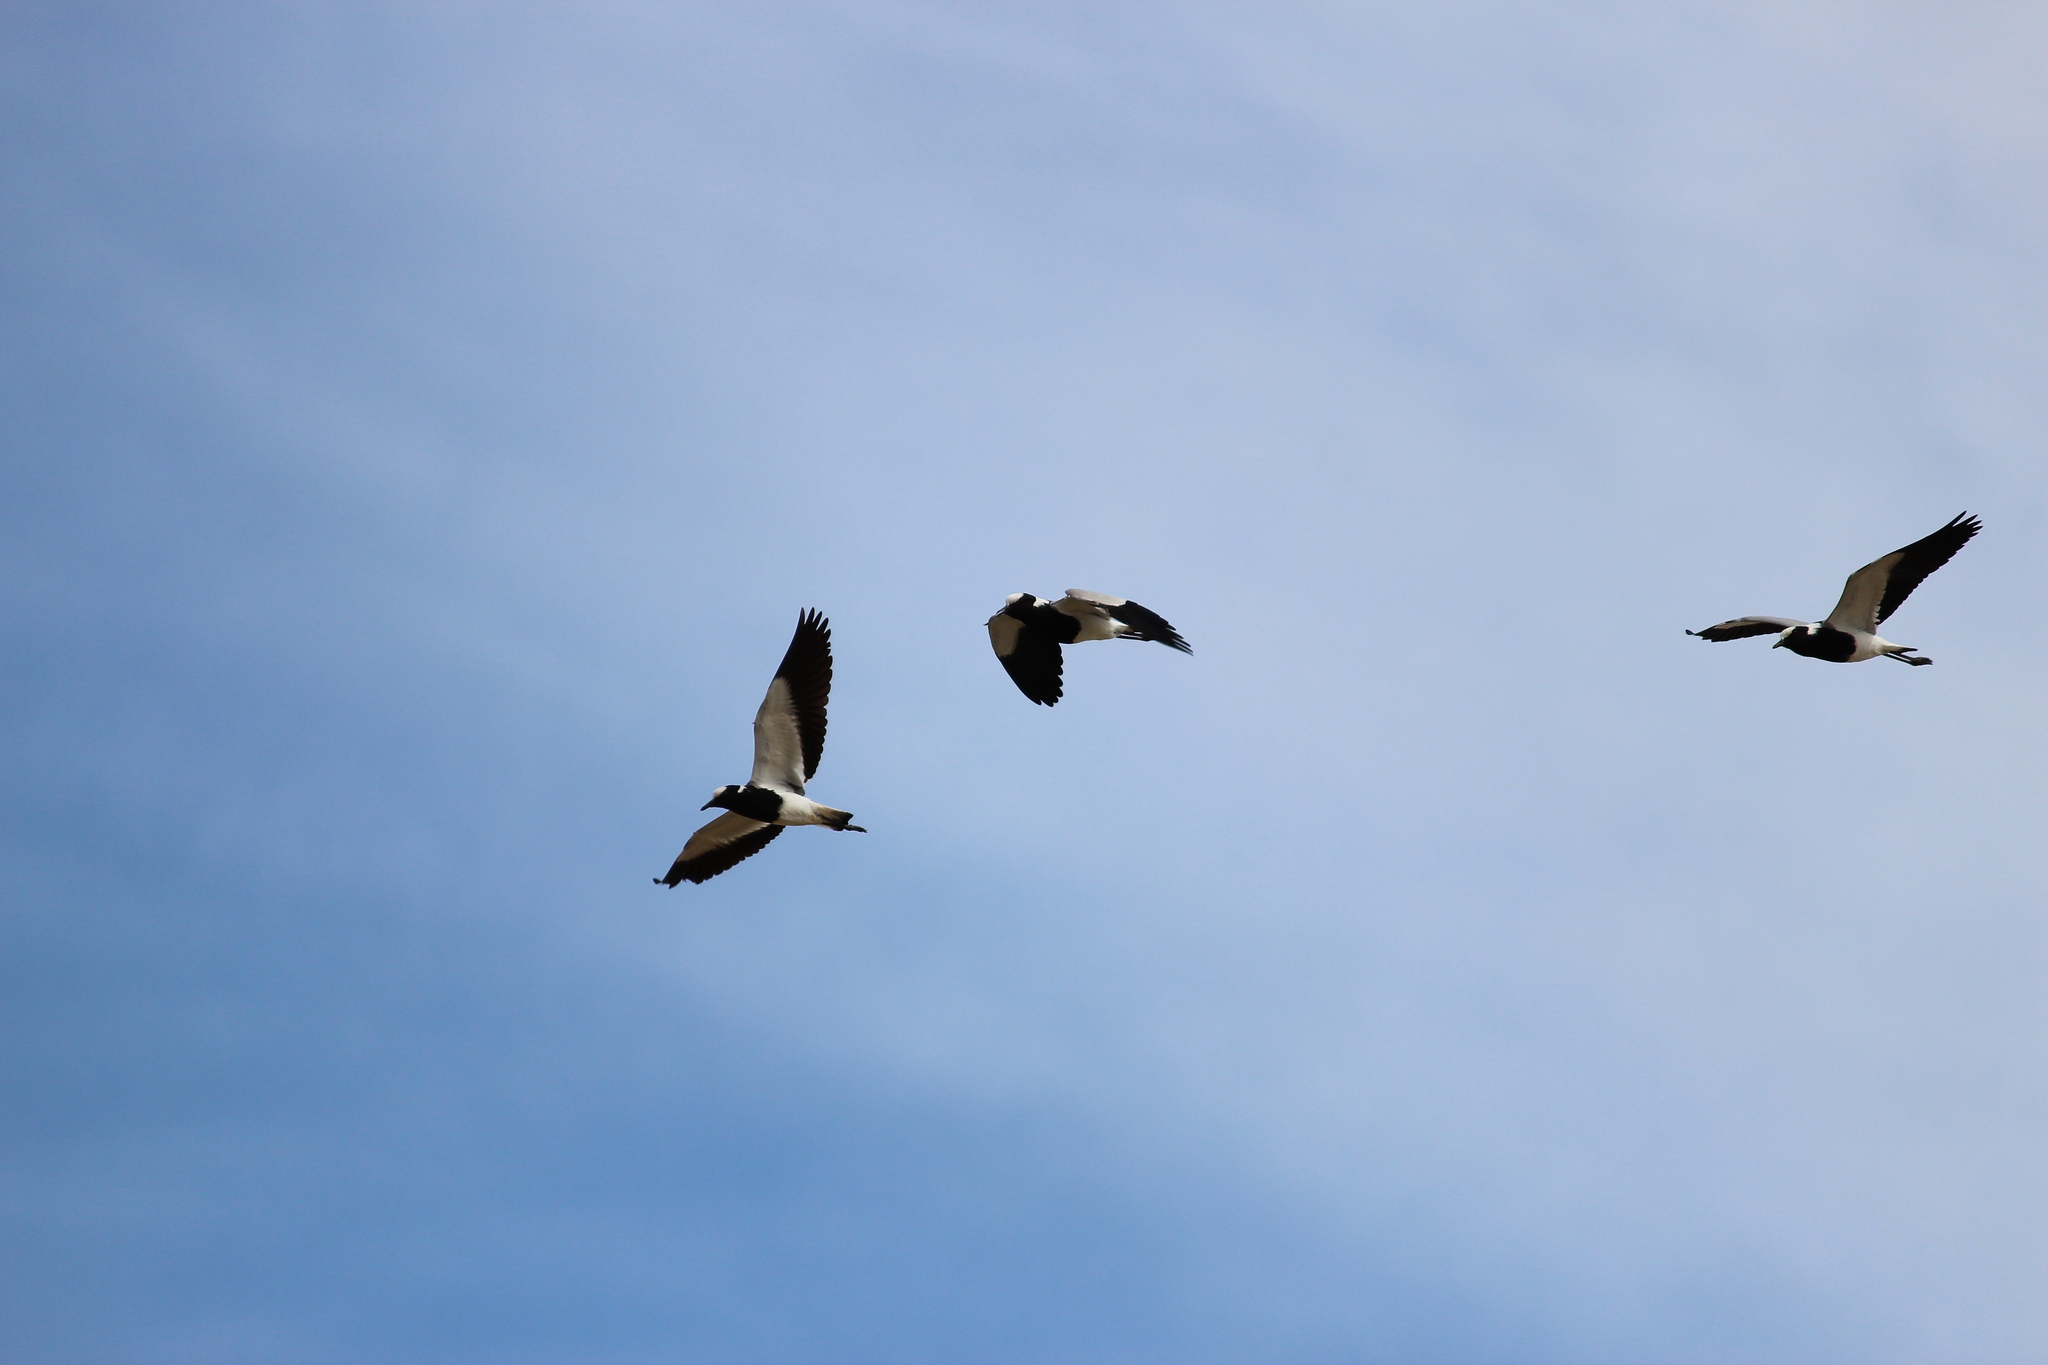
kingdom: Animalia
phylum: Chordata
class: Aves
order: Charadriiformes
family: Charadriidae
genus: Vanellus
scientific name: Vanellus armatus
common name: Blacksmith lapwing
